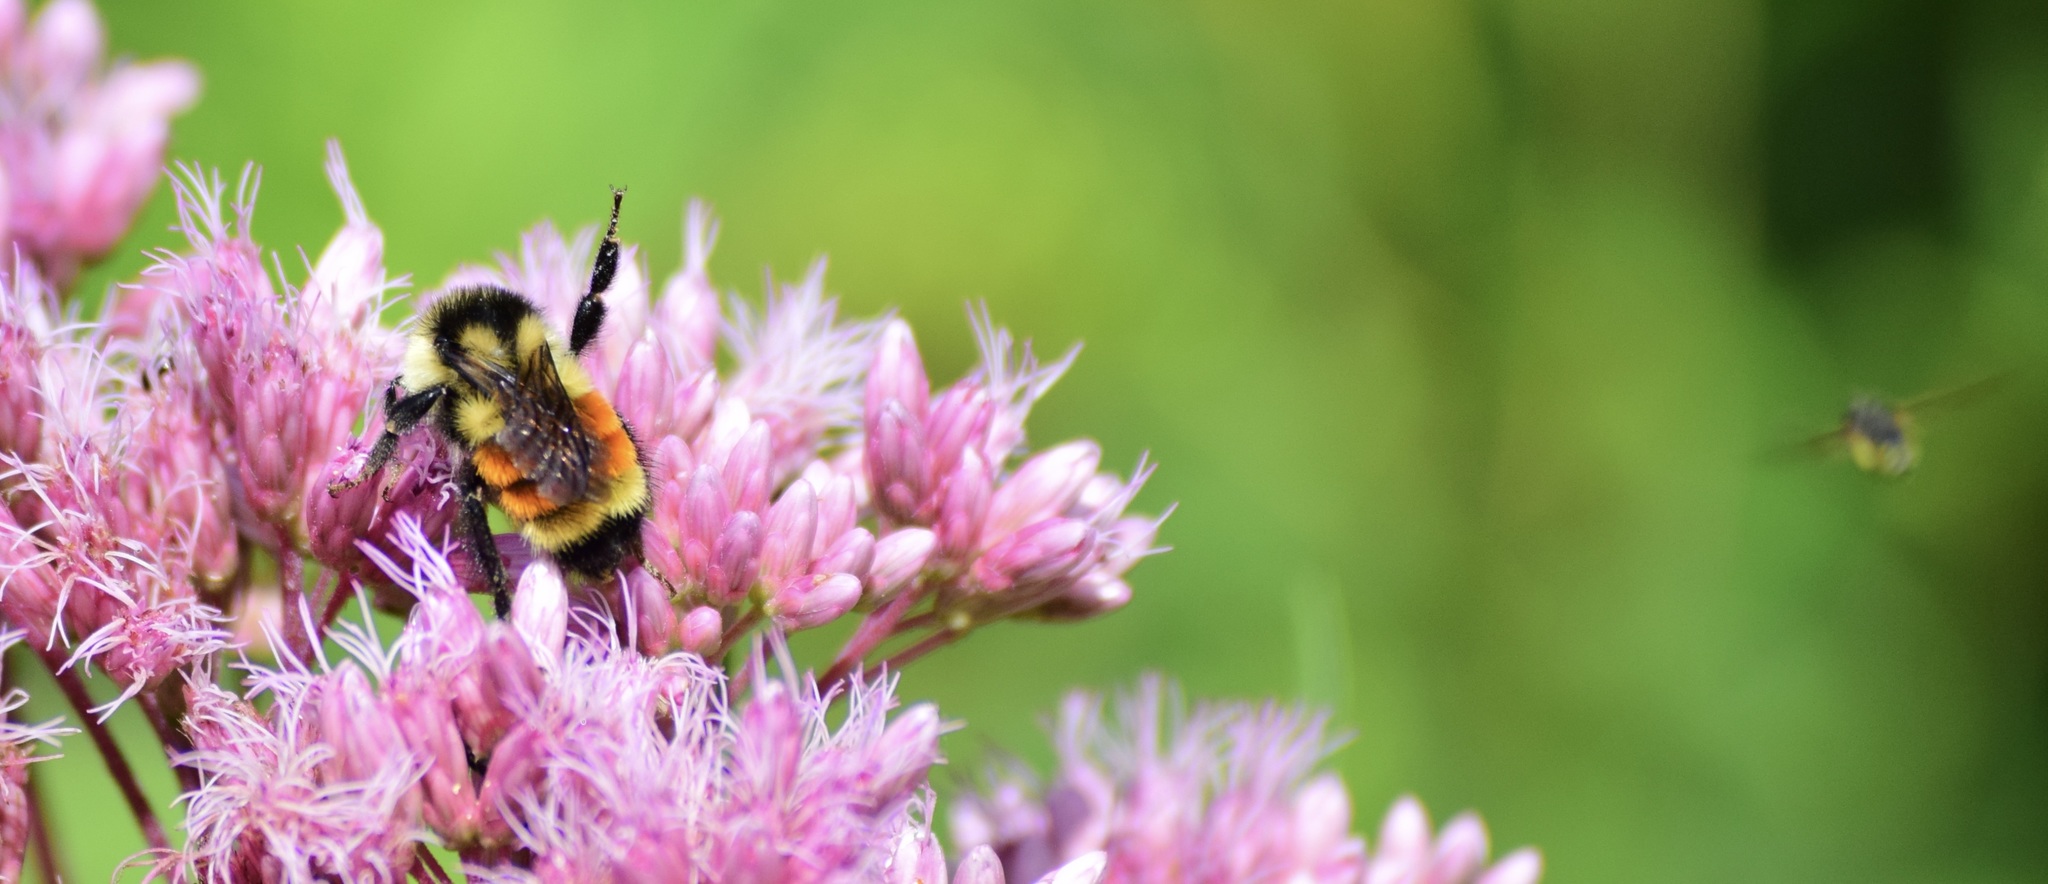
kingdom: Animalia
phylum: Arthropoda
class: Insecta
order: Hymenoptera
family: Apidae
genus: Bombus
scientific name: Bombus ternarius
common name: Tri-colored bumble bee
